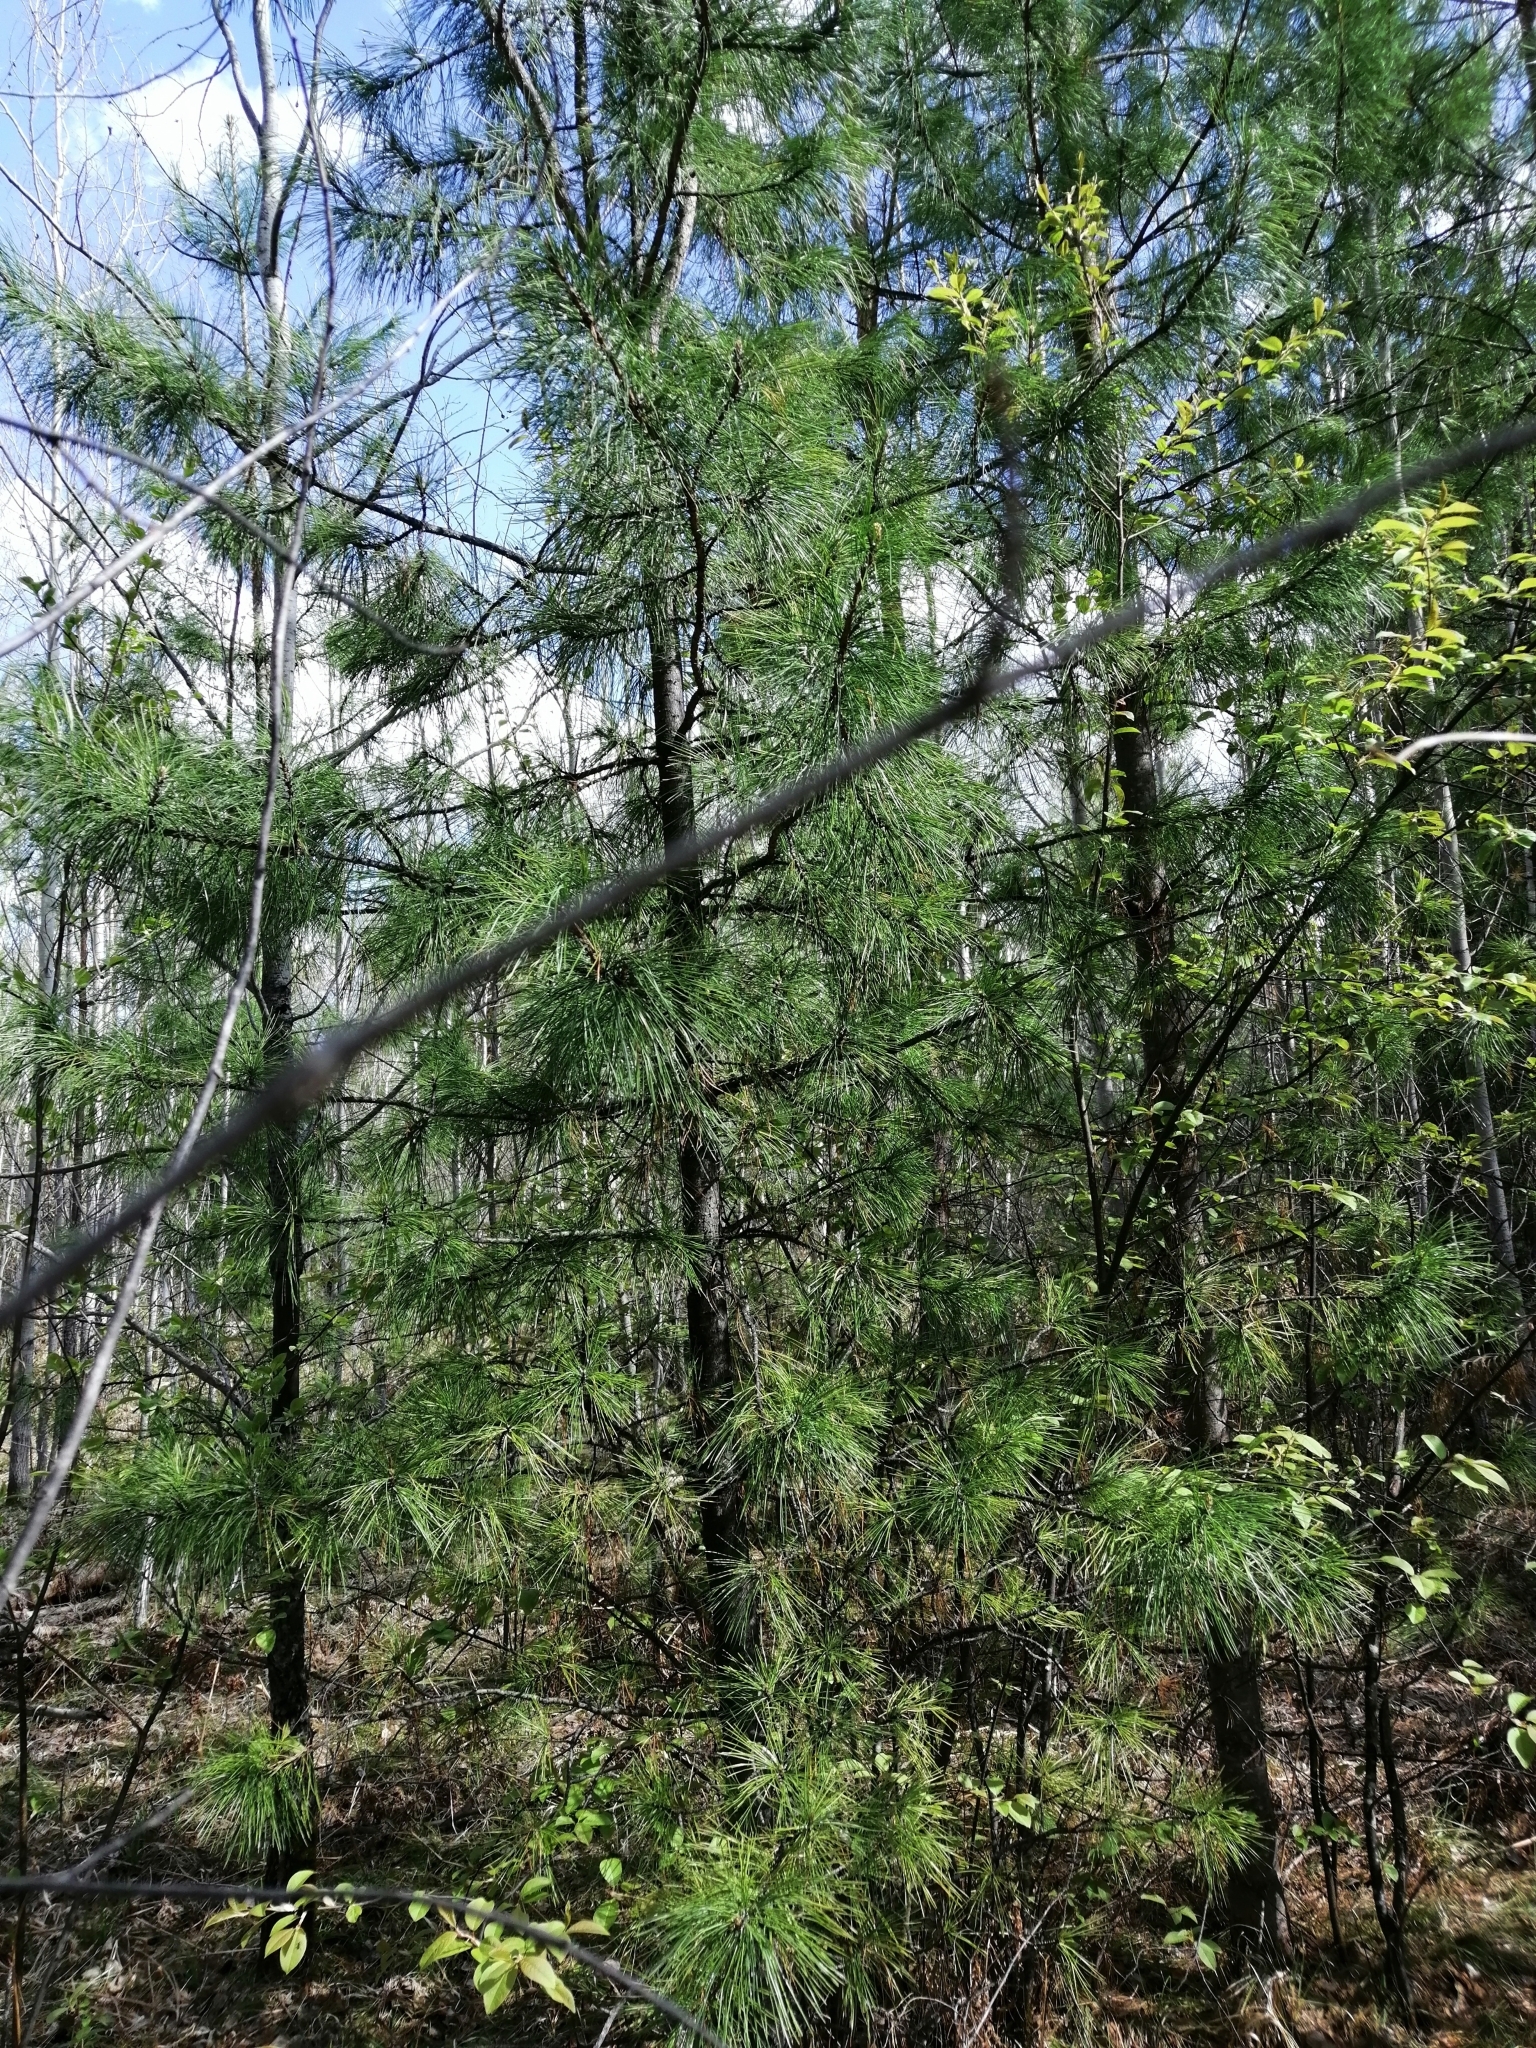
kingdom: Plantae
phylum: Tracheophyta
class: Pinopsida
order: Pinales
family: Pinaceae
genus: Pinus
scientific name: Pinus sibirica
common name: Siberian pine
